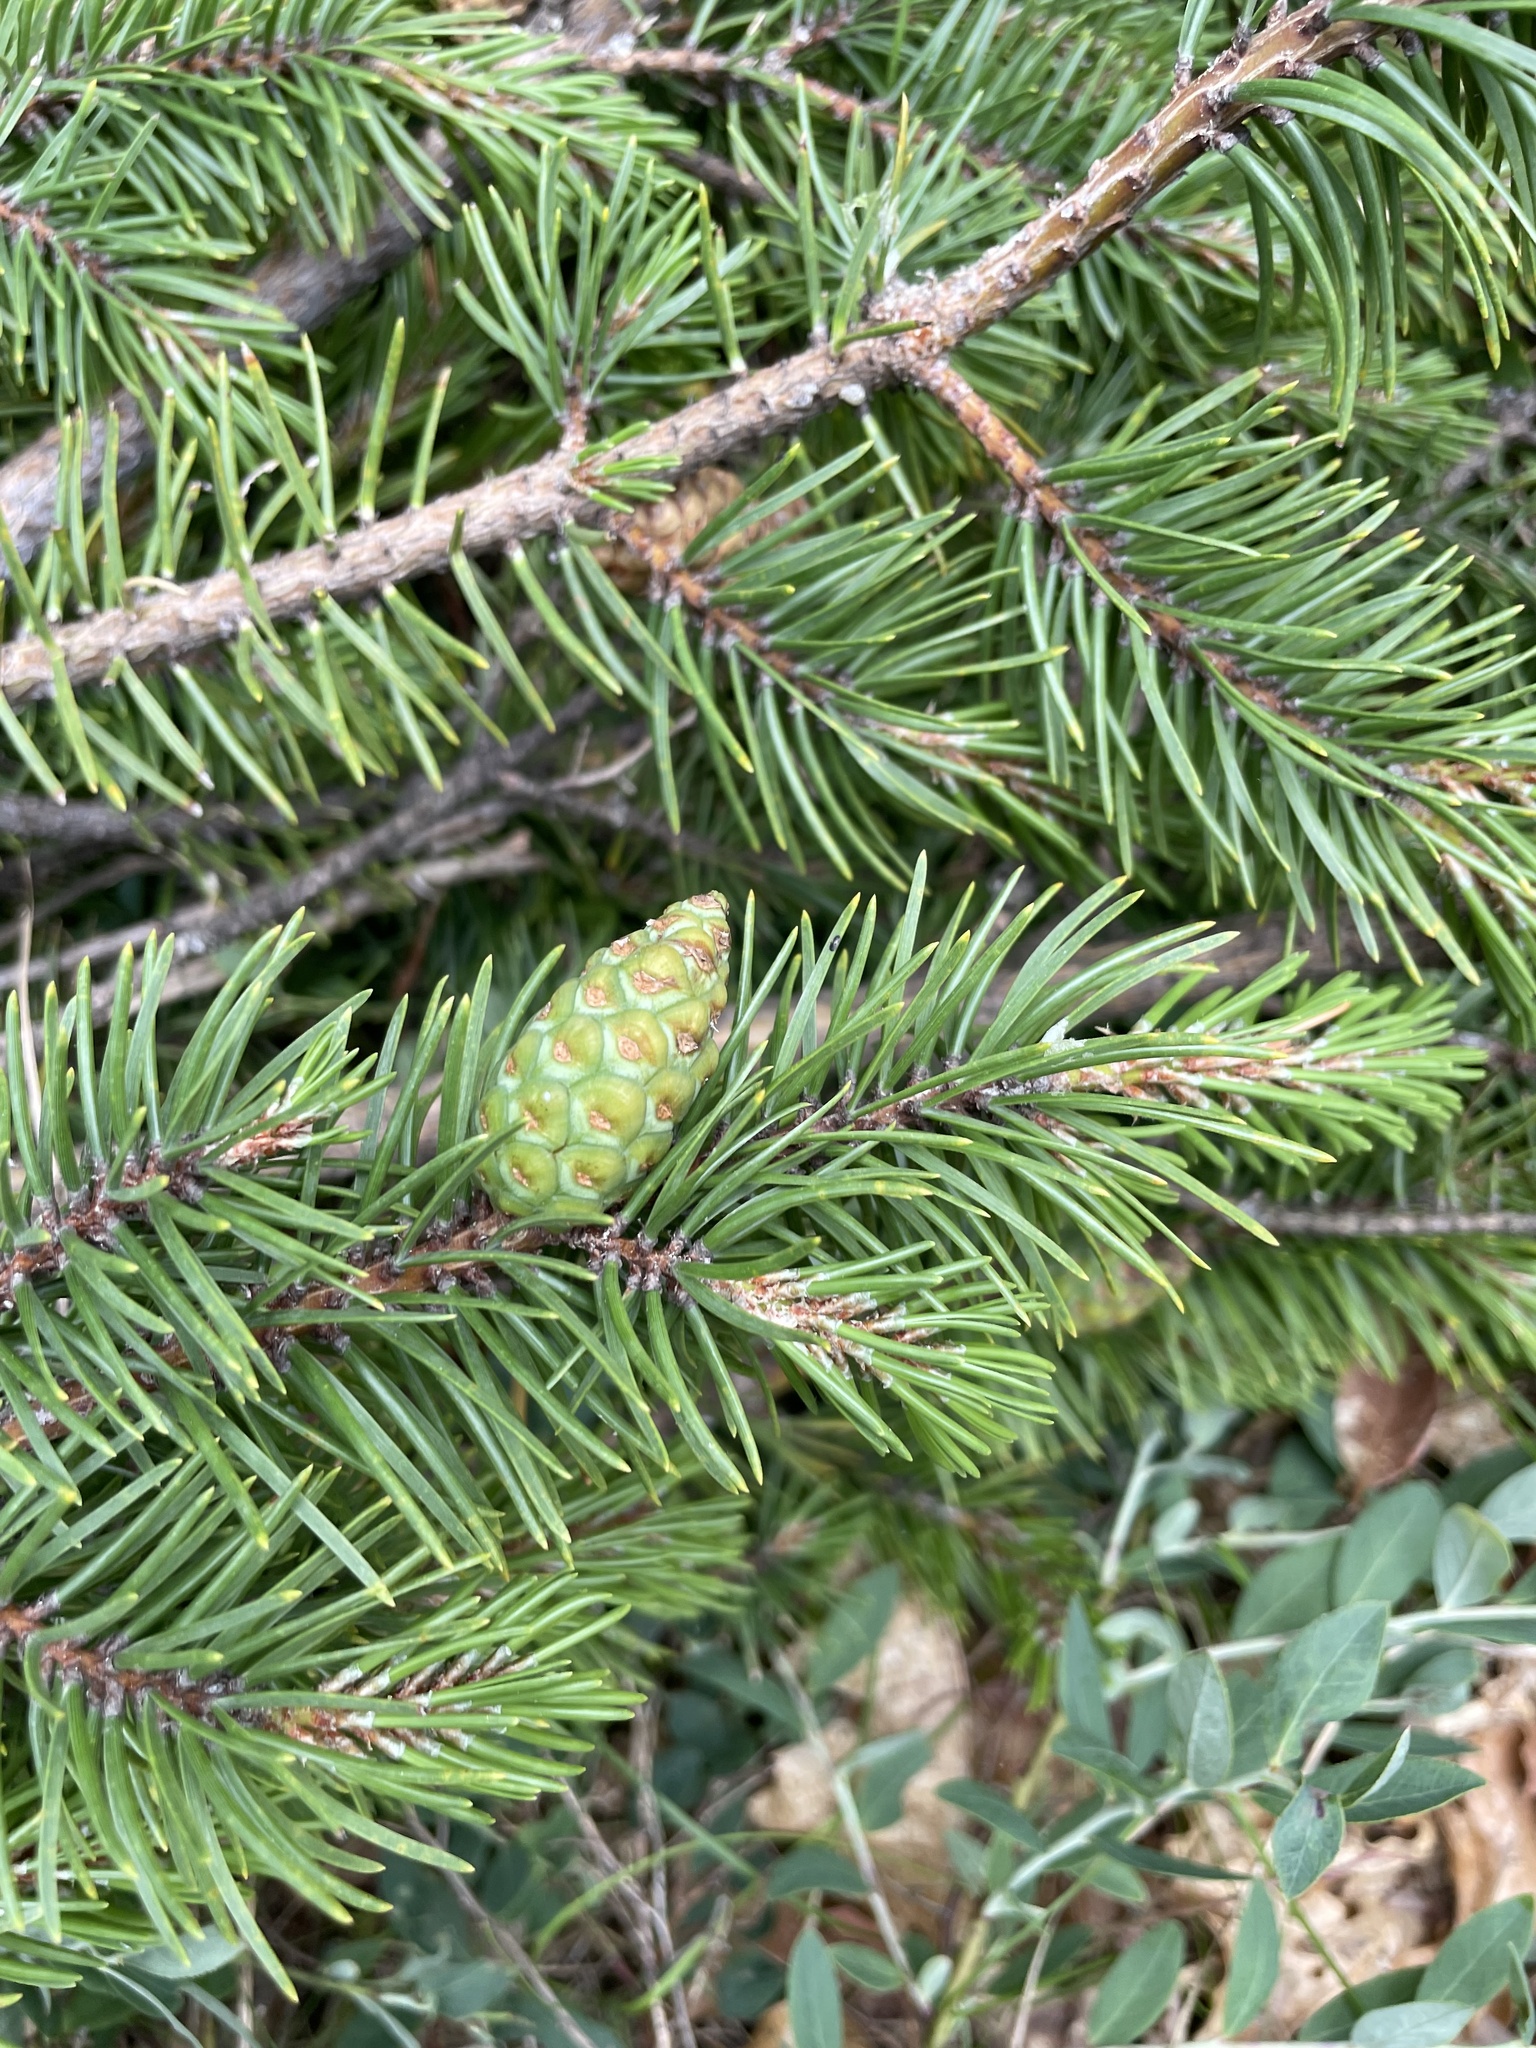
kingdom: Plantae
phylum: Tracheophyta
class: Pinopsida
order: Pinales
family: Pinaceae
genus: Pinus
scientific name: Pinus banksiana
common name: Jack pine
